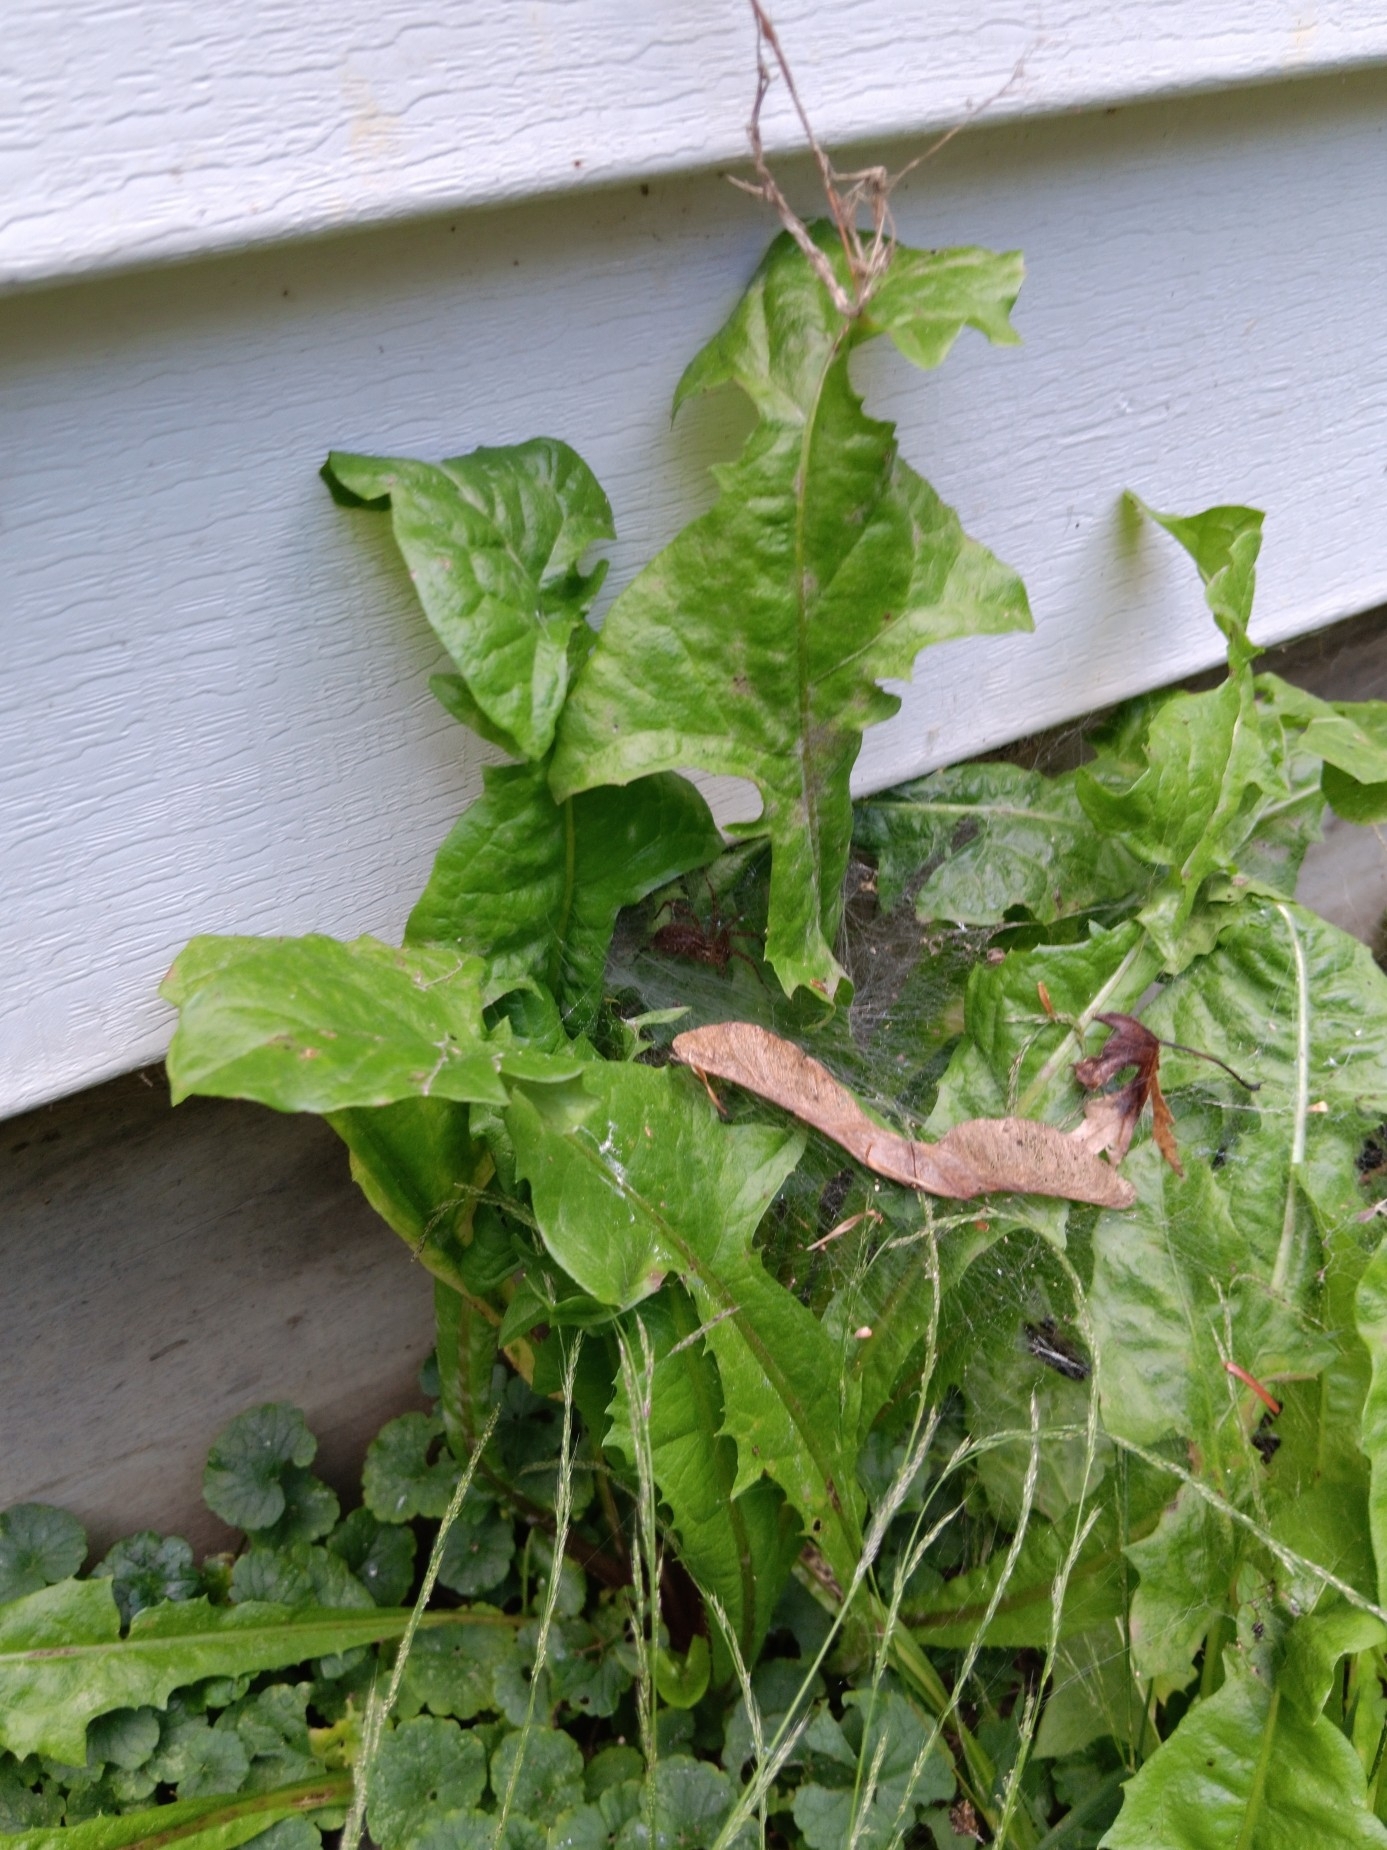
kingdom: Animalia
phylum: Arthropoda
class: Arachnida
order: Araneae
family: Agelenidae
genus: Agelenopsis
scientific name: Agelenopsis
